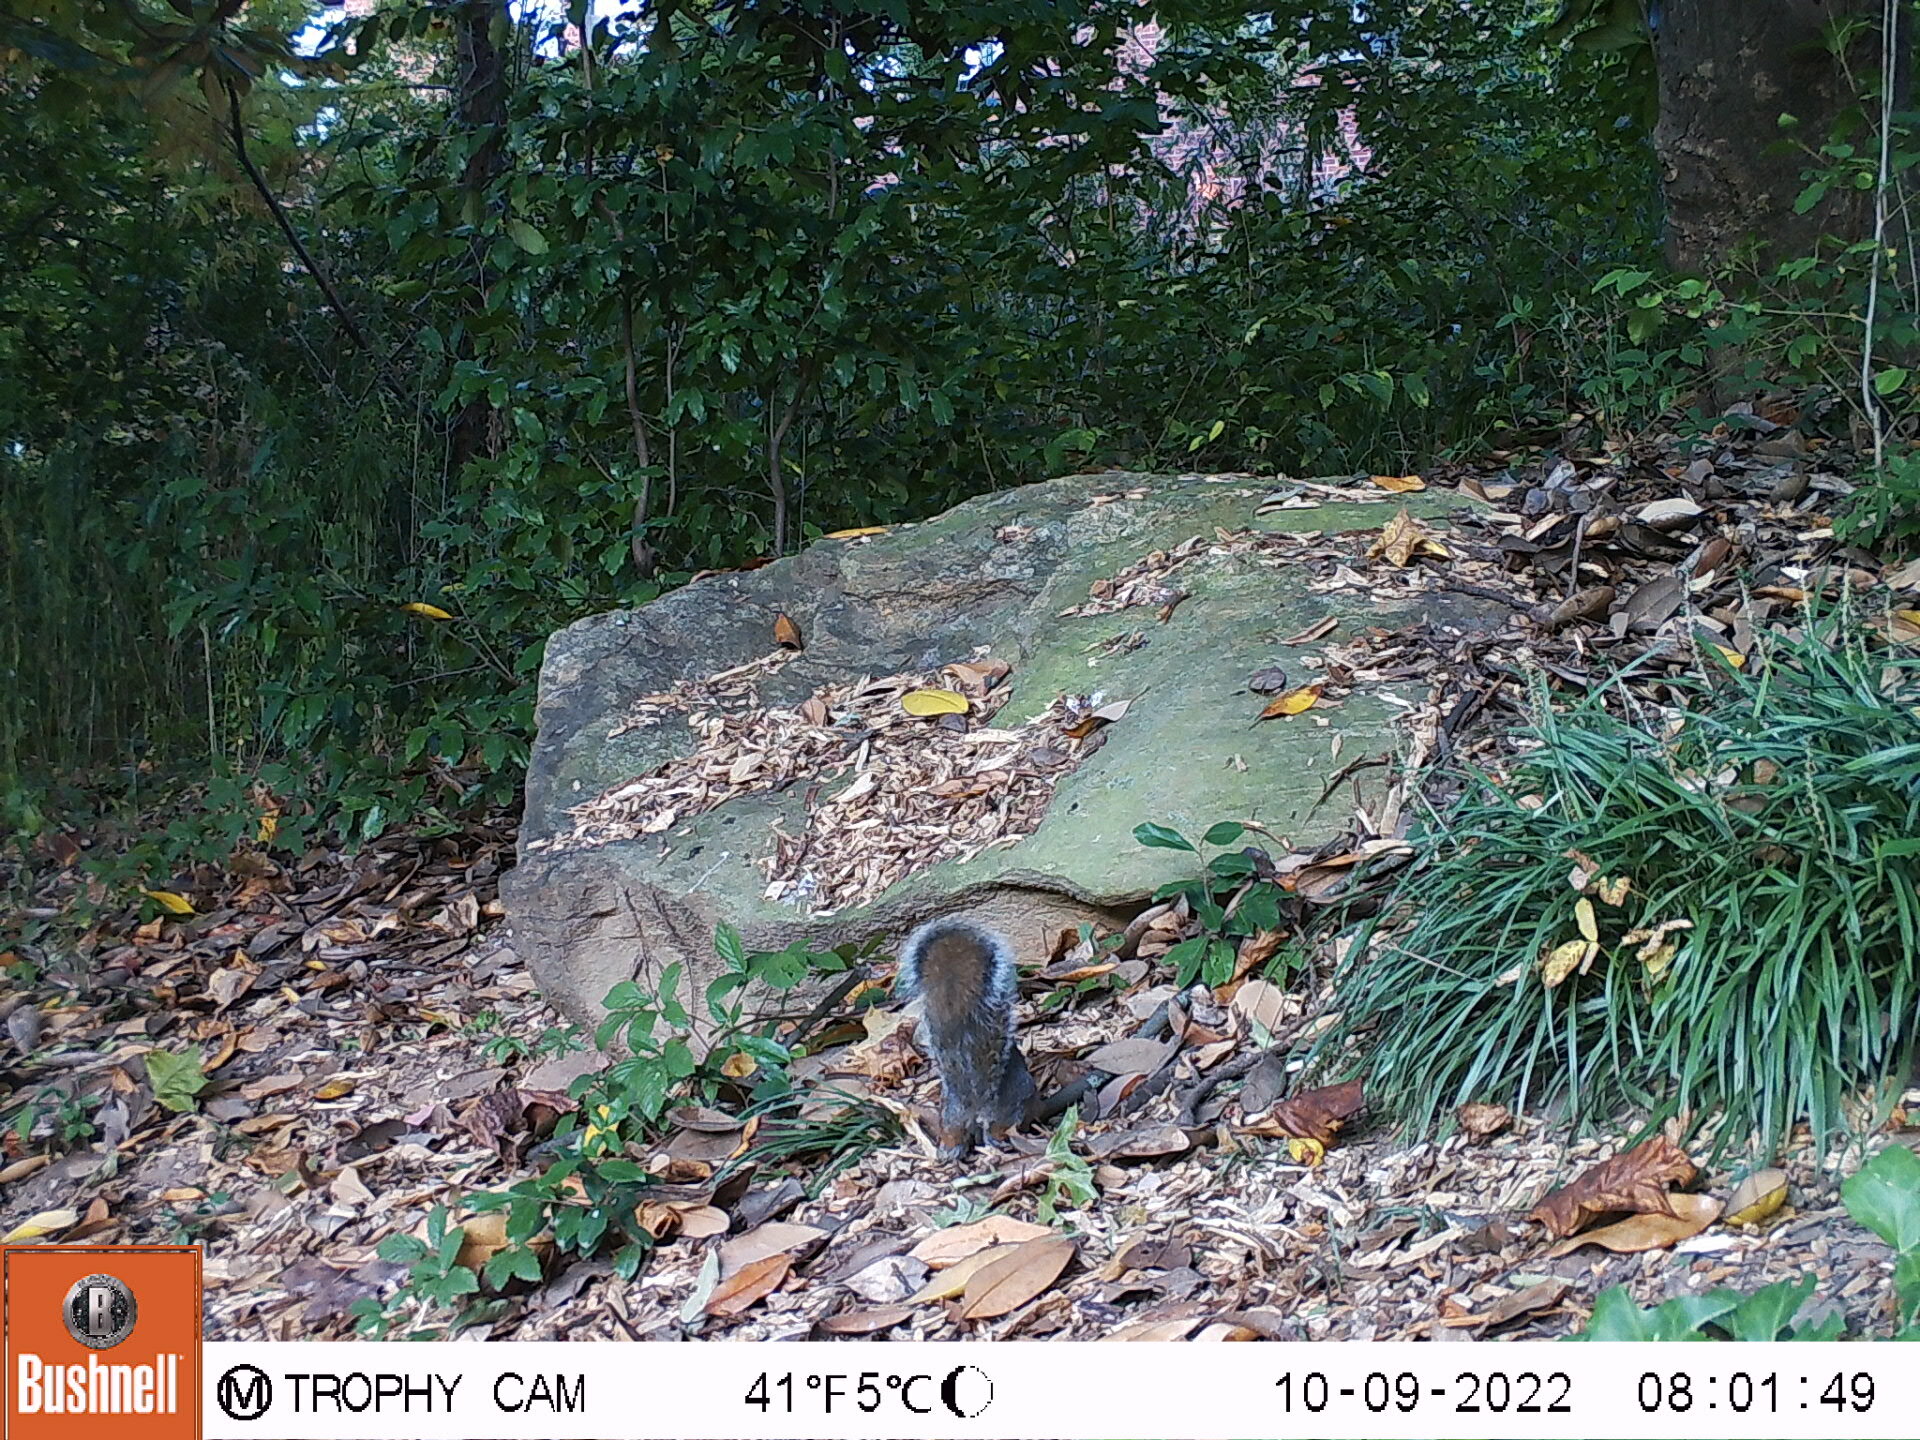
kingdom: Animalia
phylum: Chordata
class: Mammalia
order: Rodentia
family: Sciuridae
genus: Sciurus
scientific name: Sciurus carolinensis
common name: Eastern gray squirrel
